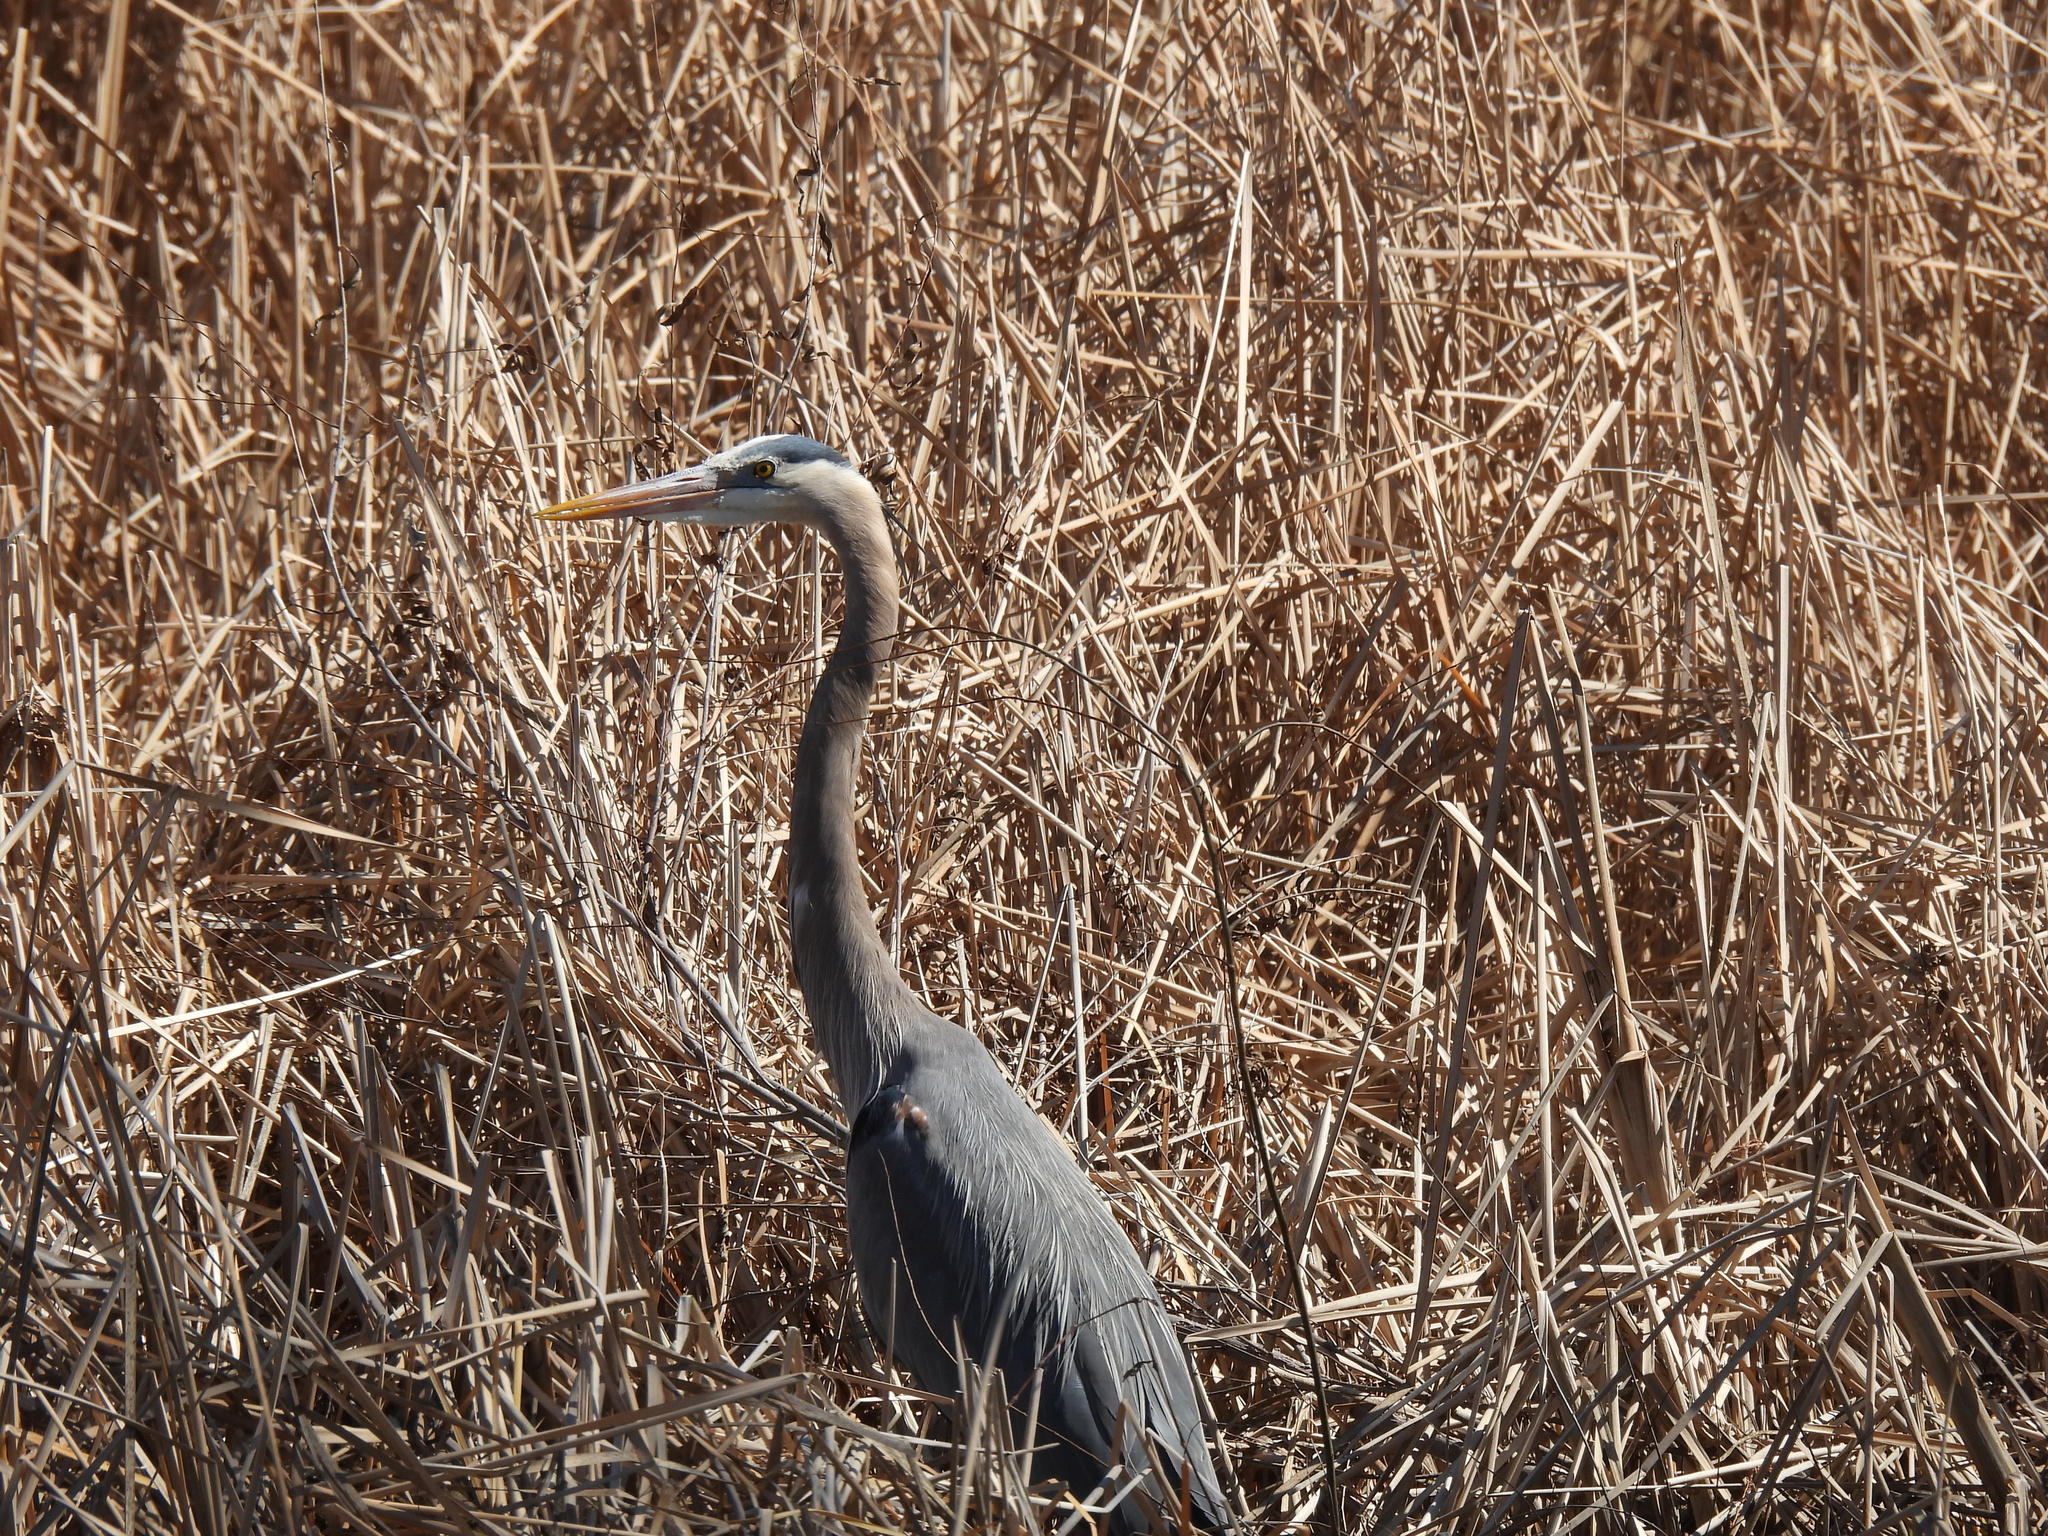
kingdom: Animalia
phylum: Chordata
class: Aves
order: Pelecaniformes
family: Ardeidae
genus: Ardea
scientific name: Ardea herodias
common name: Great blue heron
